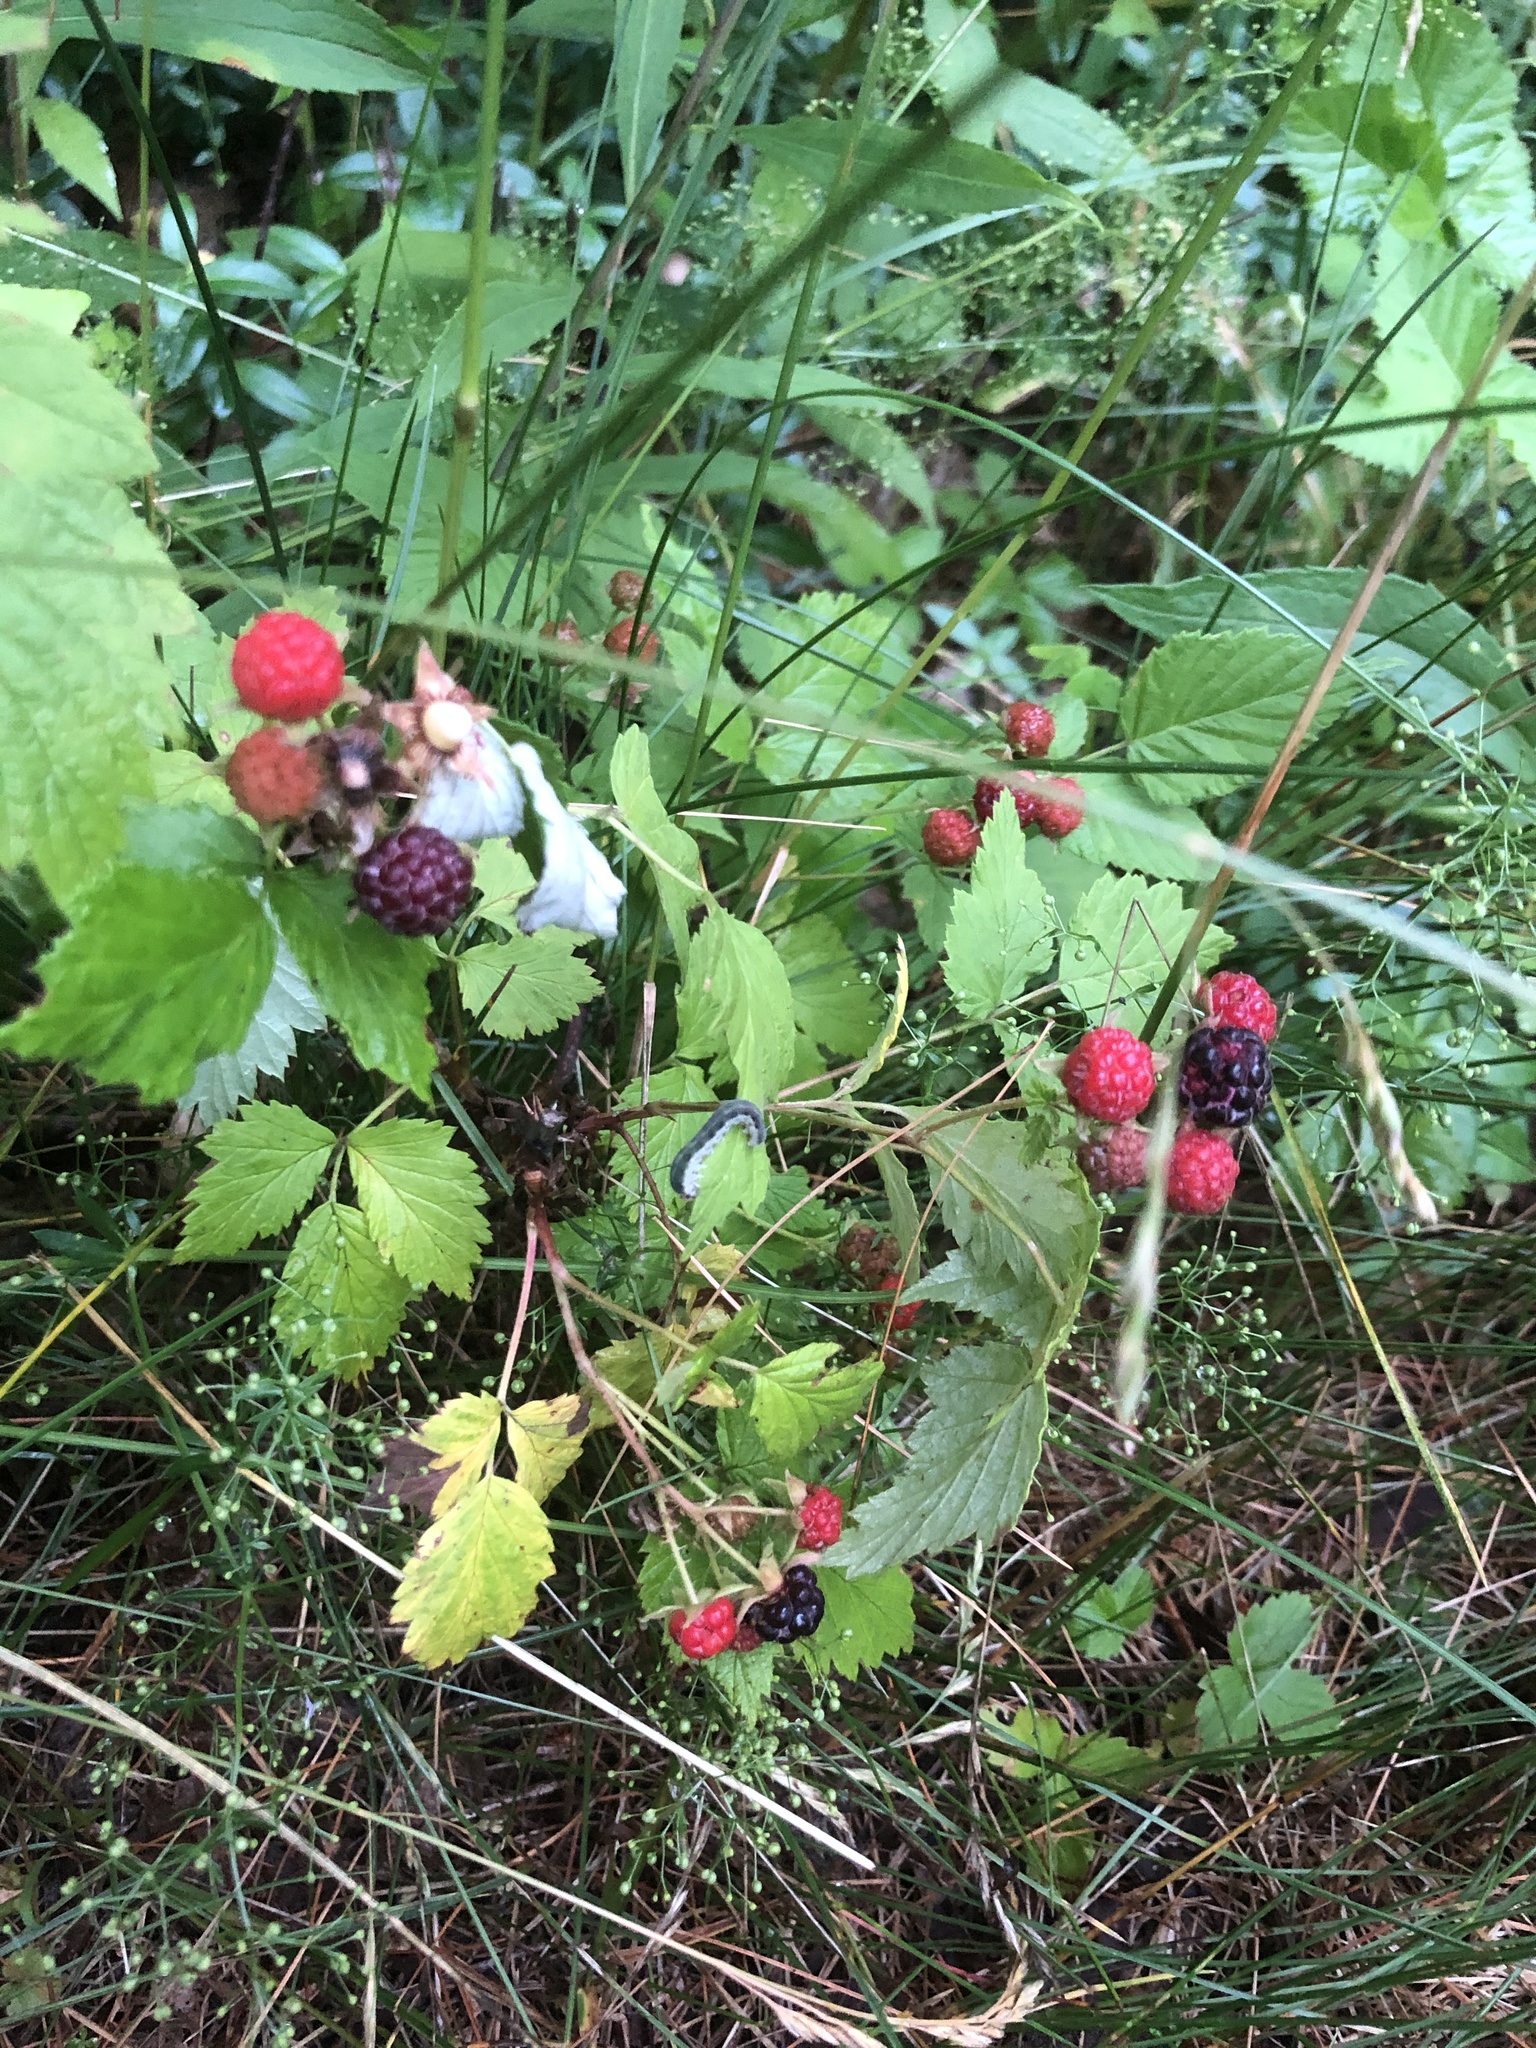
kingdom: Plantae
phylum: Tracheophyta
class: Magnoliopsida
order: Rosales
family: Rosaceae
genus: Rubus
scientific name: Rubus occidentalis
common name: Black raspberry
